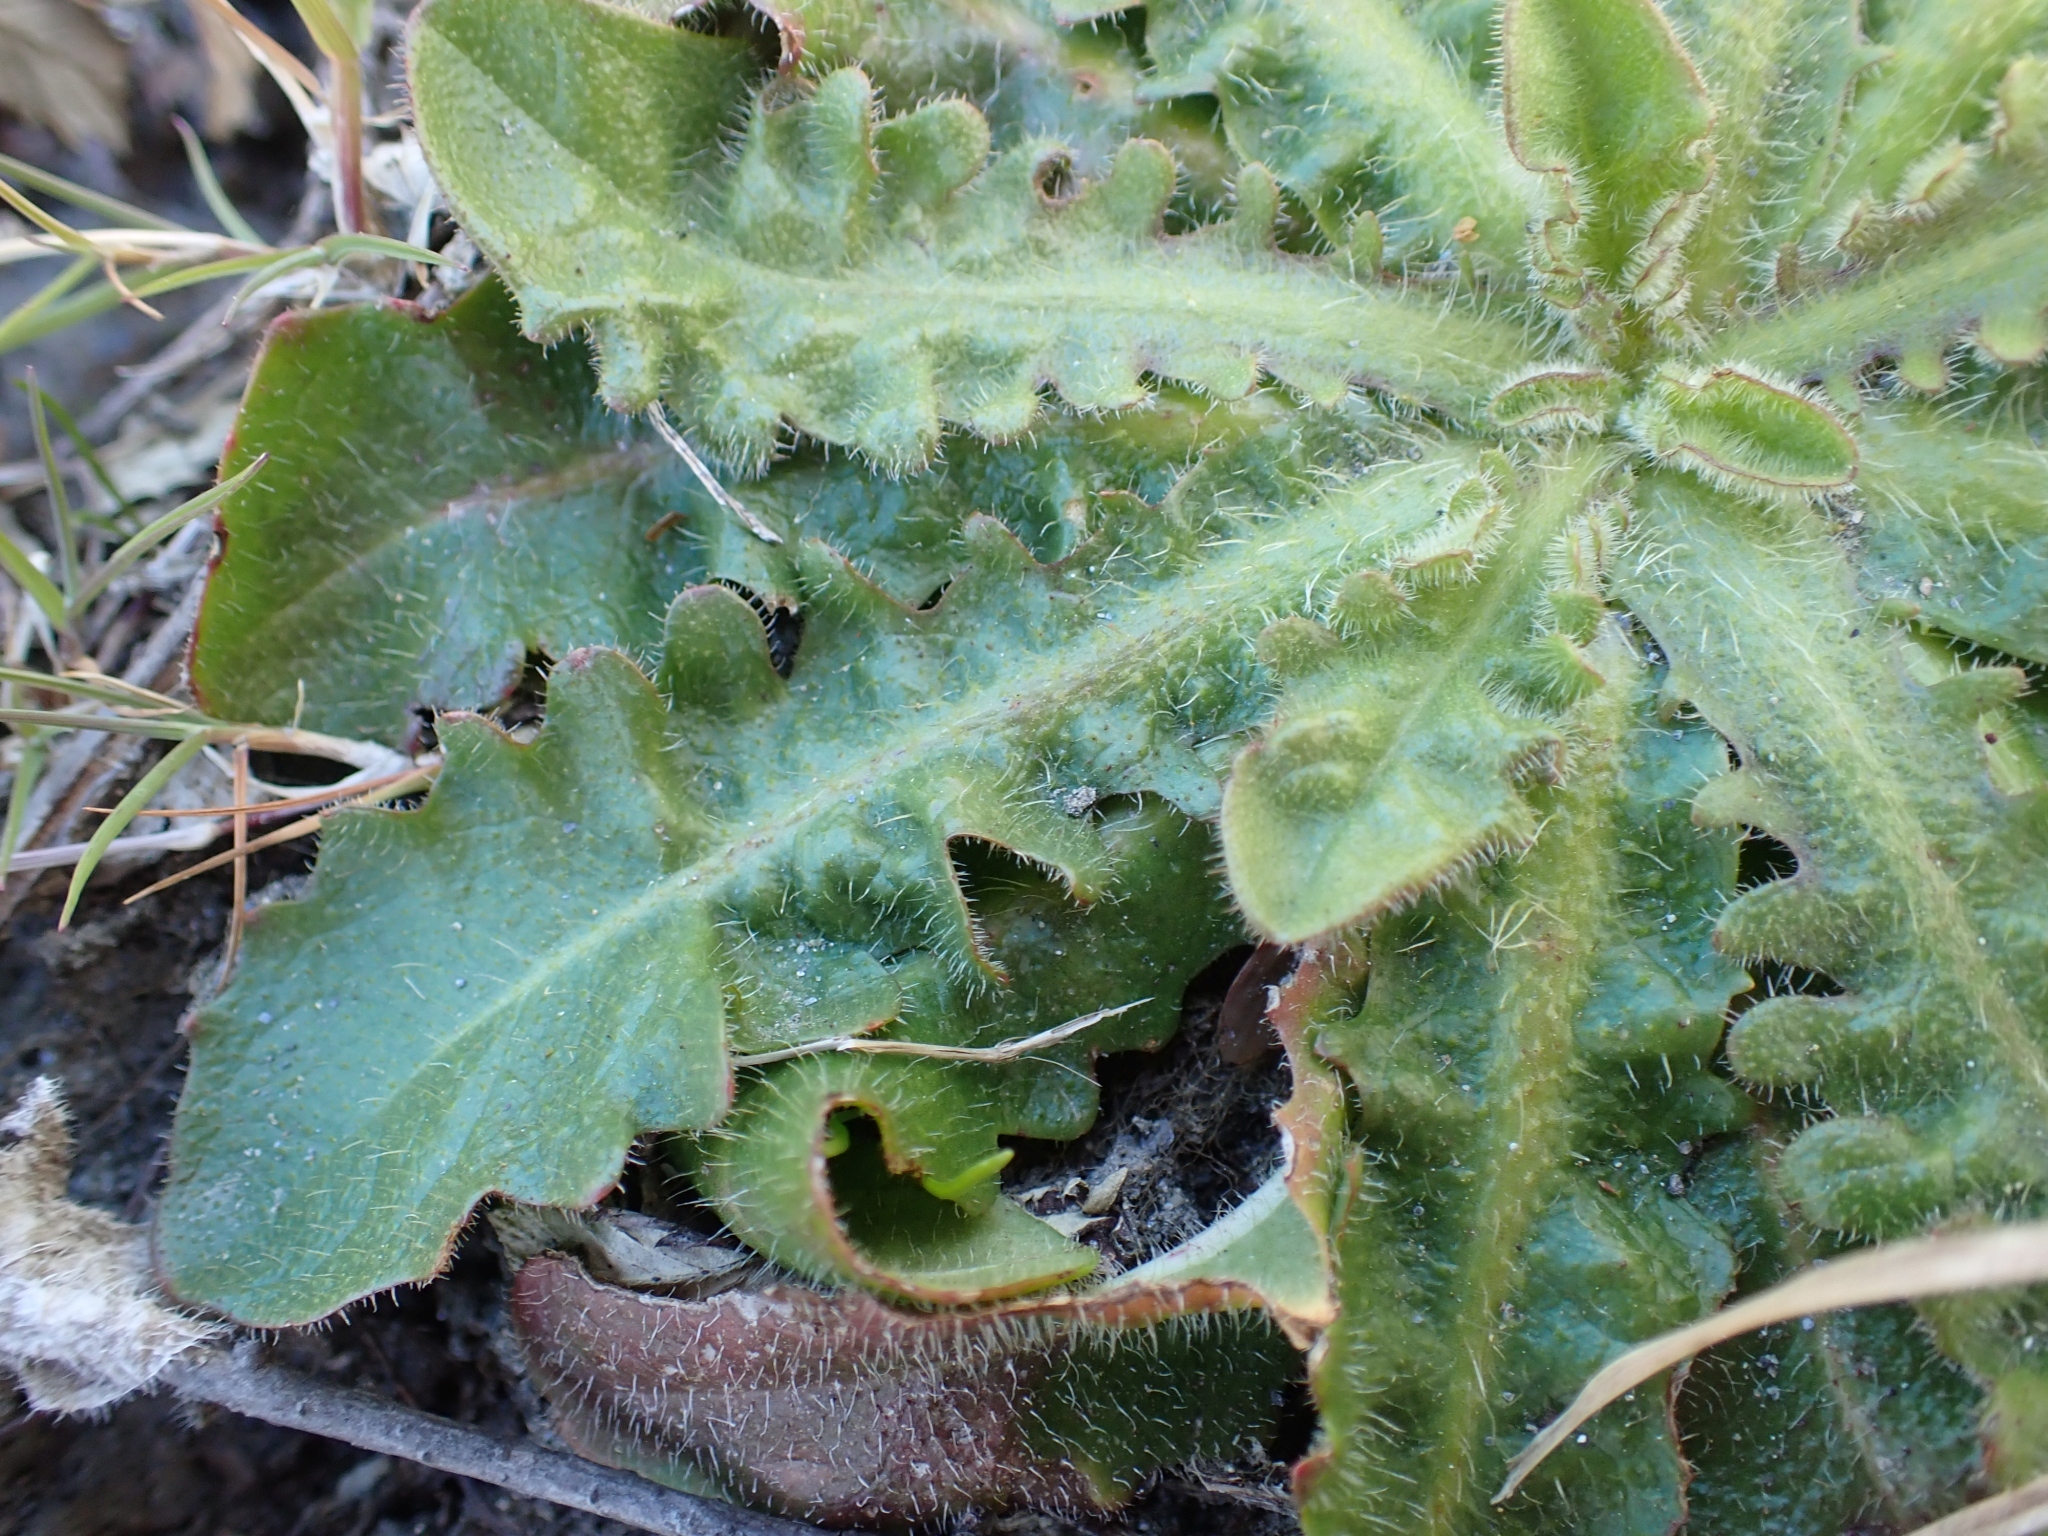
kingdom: Plantae
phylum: Tracheophyta
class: Magnoliopsida
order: Asterales
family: Asteraceae
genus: Hypochaeris
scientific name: Hypochaeris radicata
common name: Flatweed
